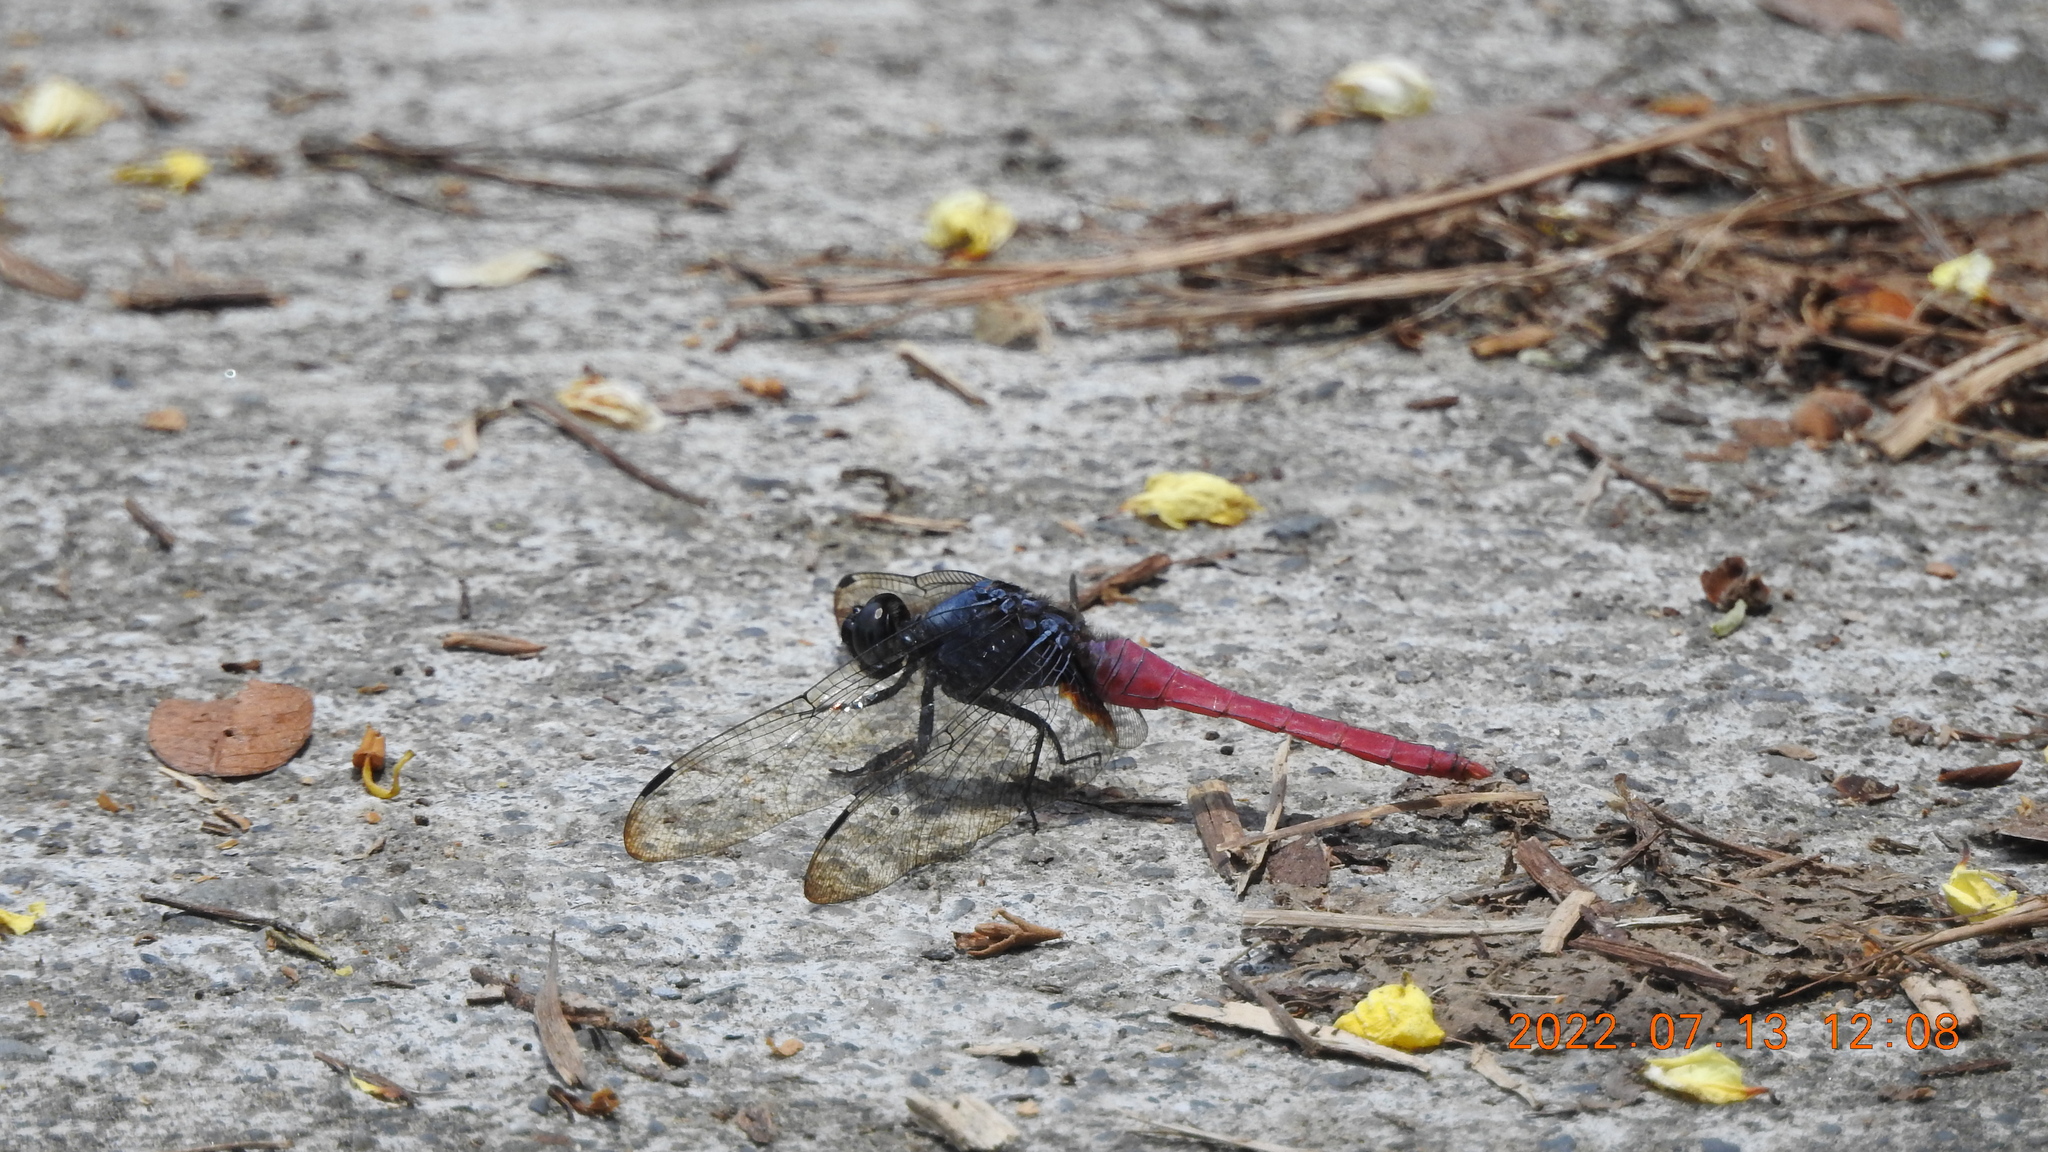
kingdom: Animalia
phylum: Arthropoda
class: Insecta
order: Odonata
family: Libellulidae
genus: Orthetrum
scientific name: Orthetrum pruinosum
